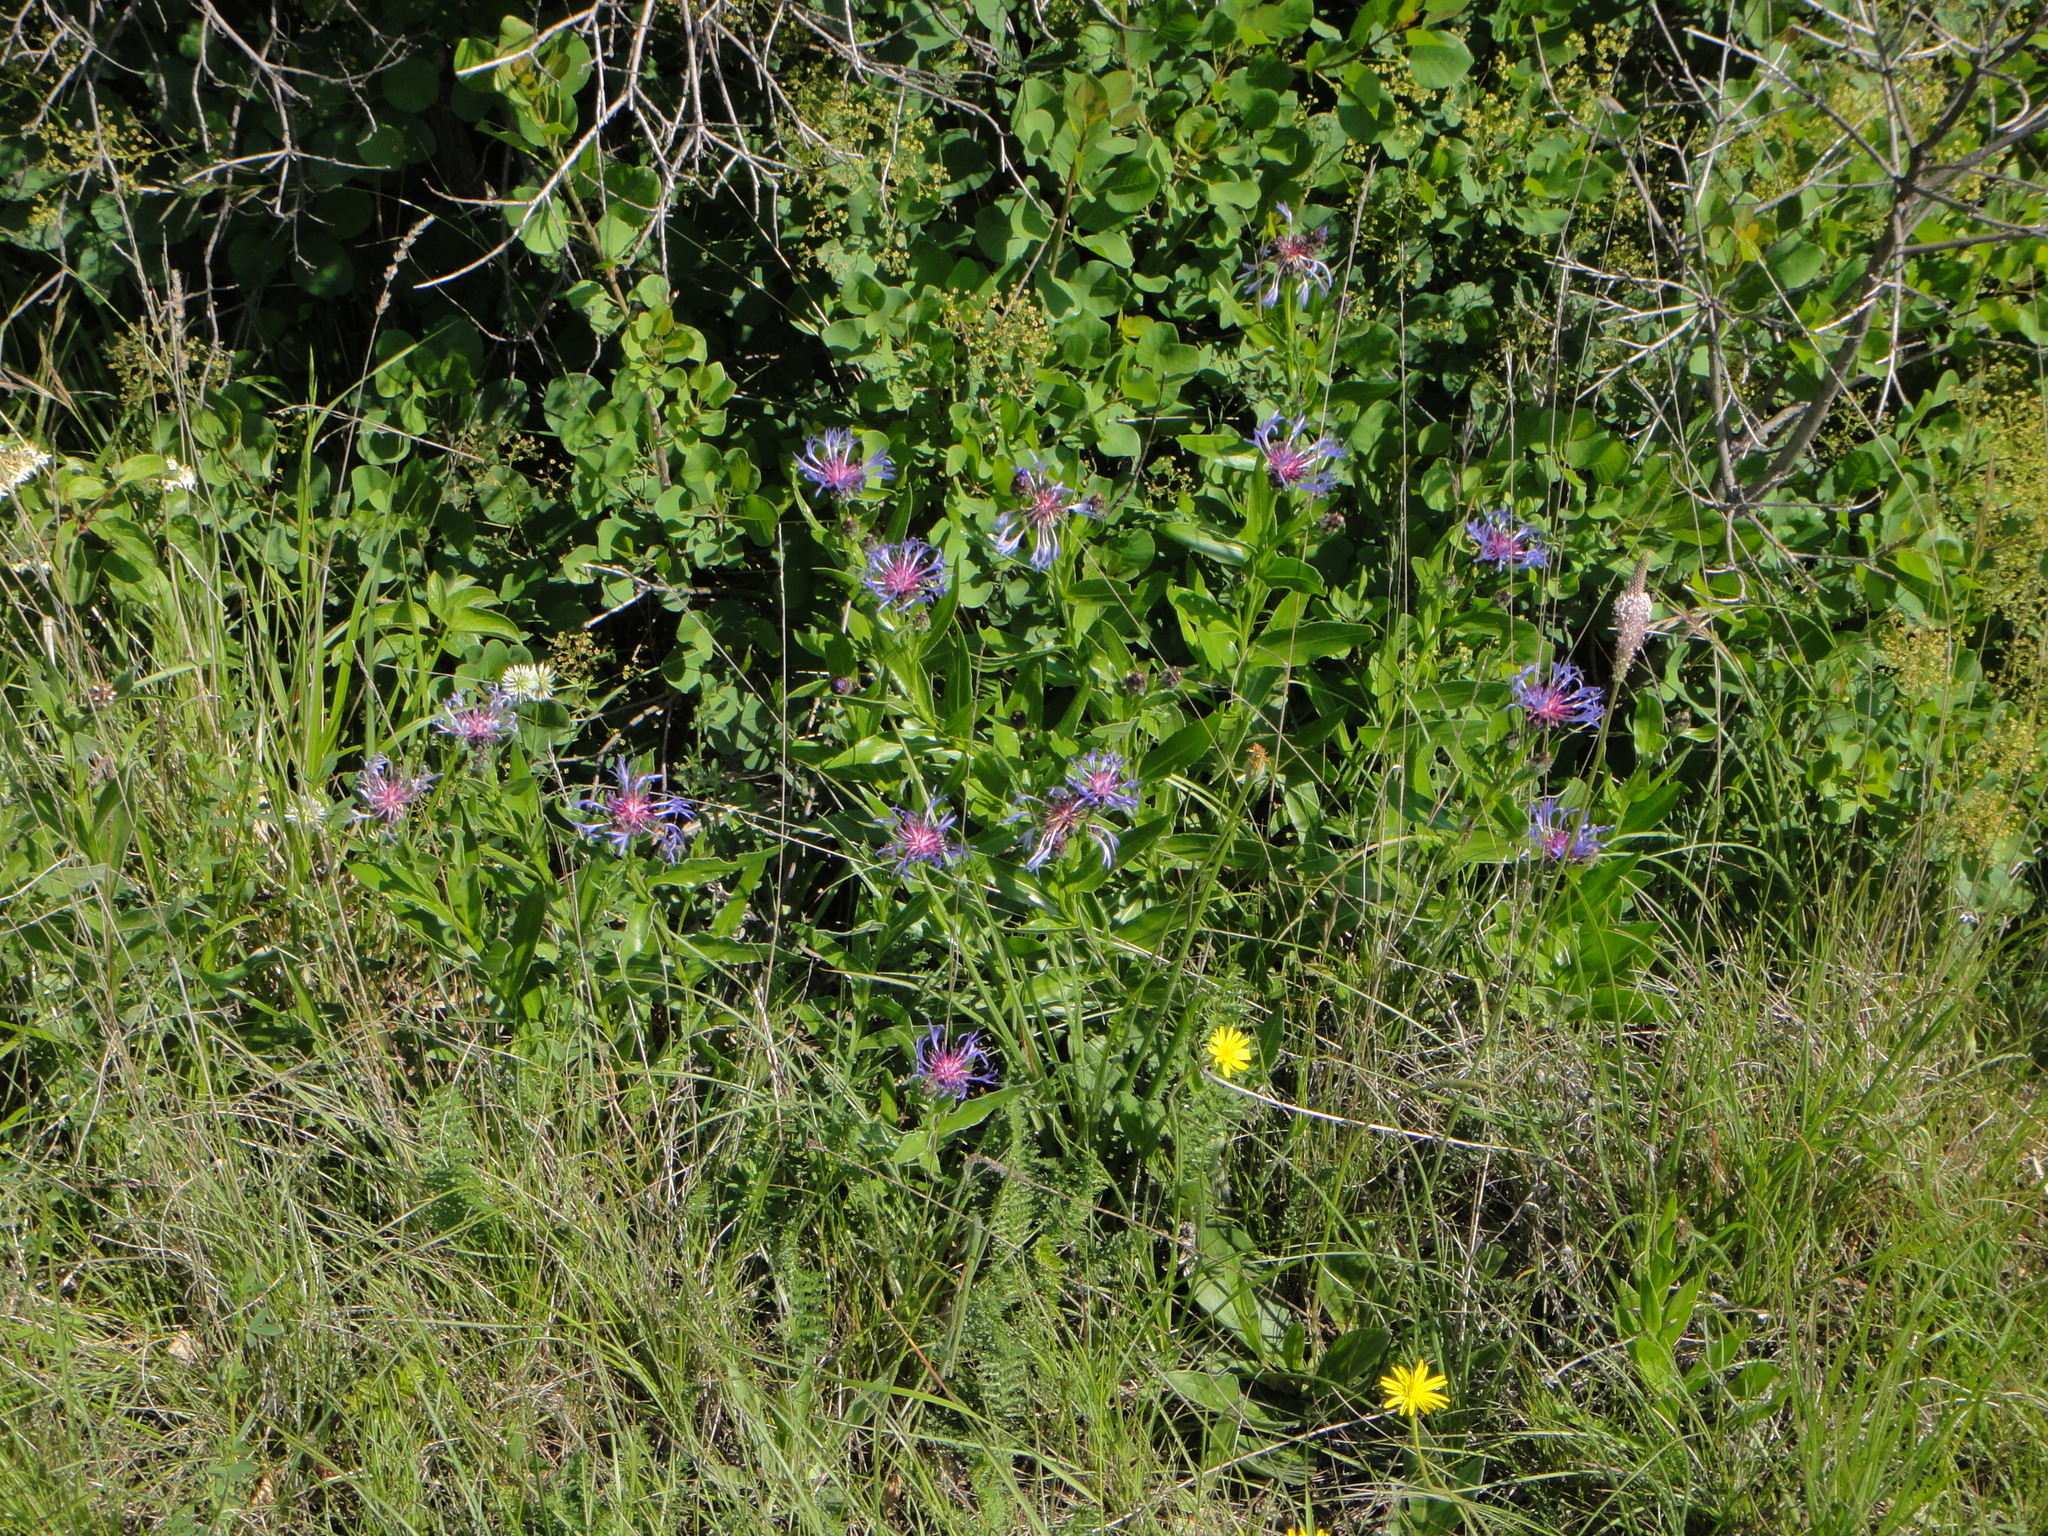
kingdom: Plantae
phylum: Tracheophyta
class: Magnoliopsida
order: Asterales
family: Asteraceae
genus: Centaurea
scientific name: Centaurea triumfettii
